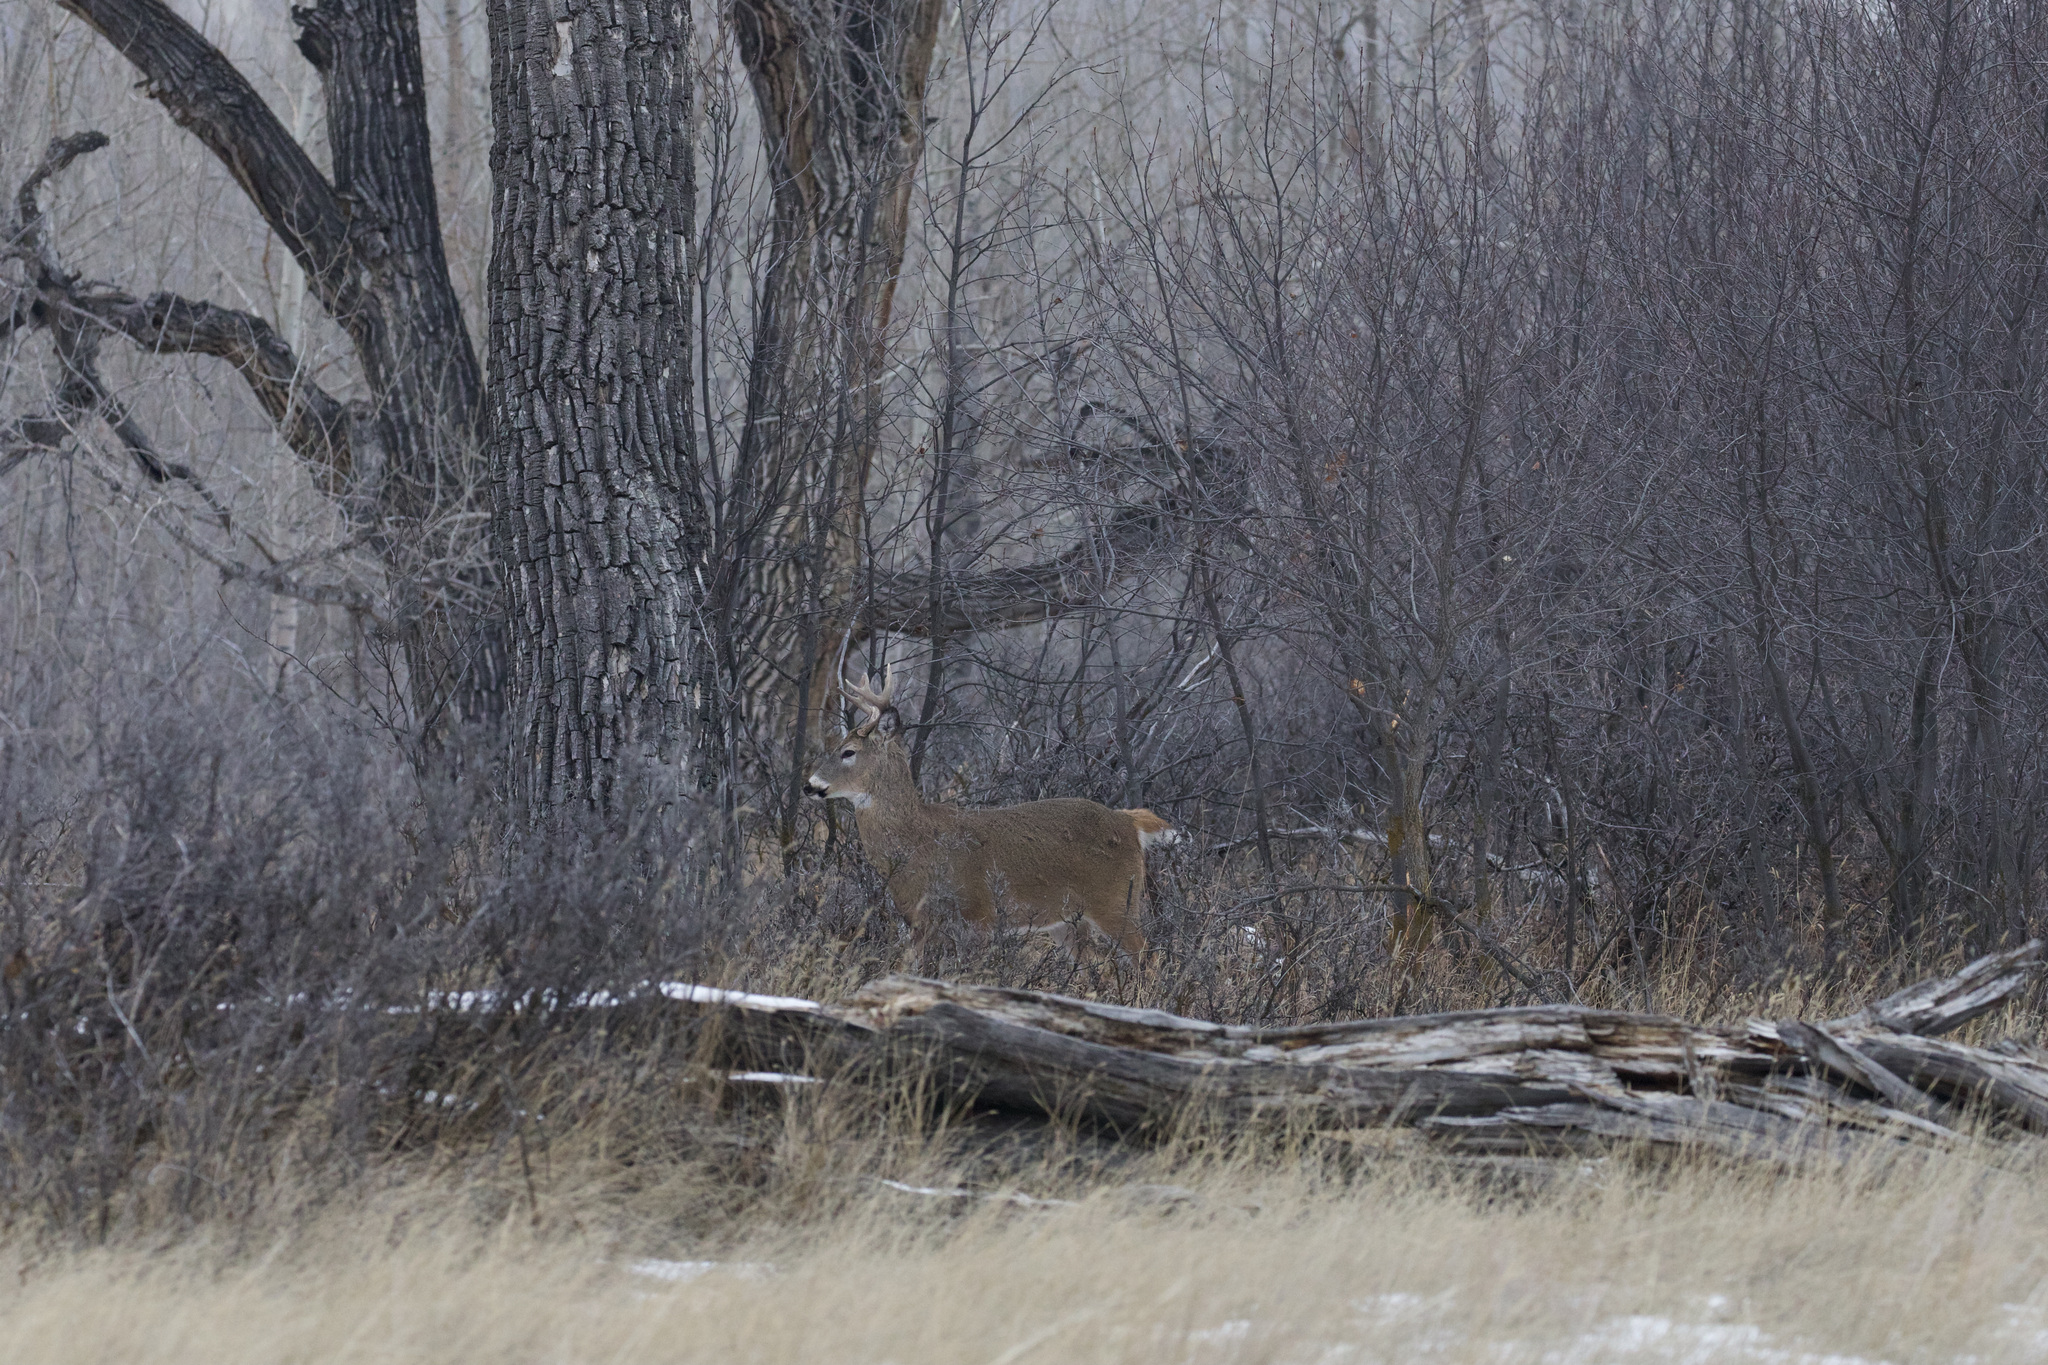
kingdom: Animalia
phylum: Chordata
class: Mammalia
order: Artiodactyla
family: Cervidae
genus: Odocoileus
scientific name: Odocoileus virginianus
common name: White-tailed deer
